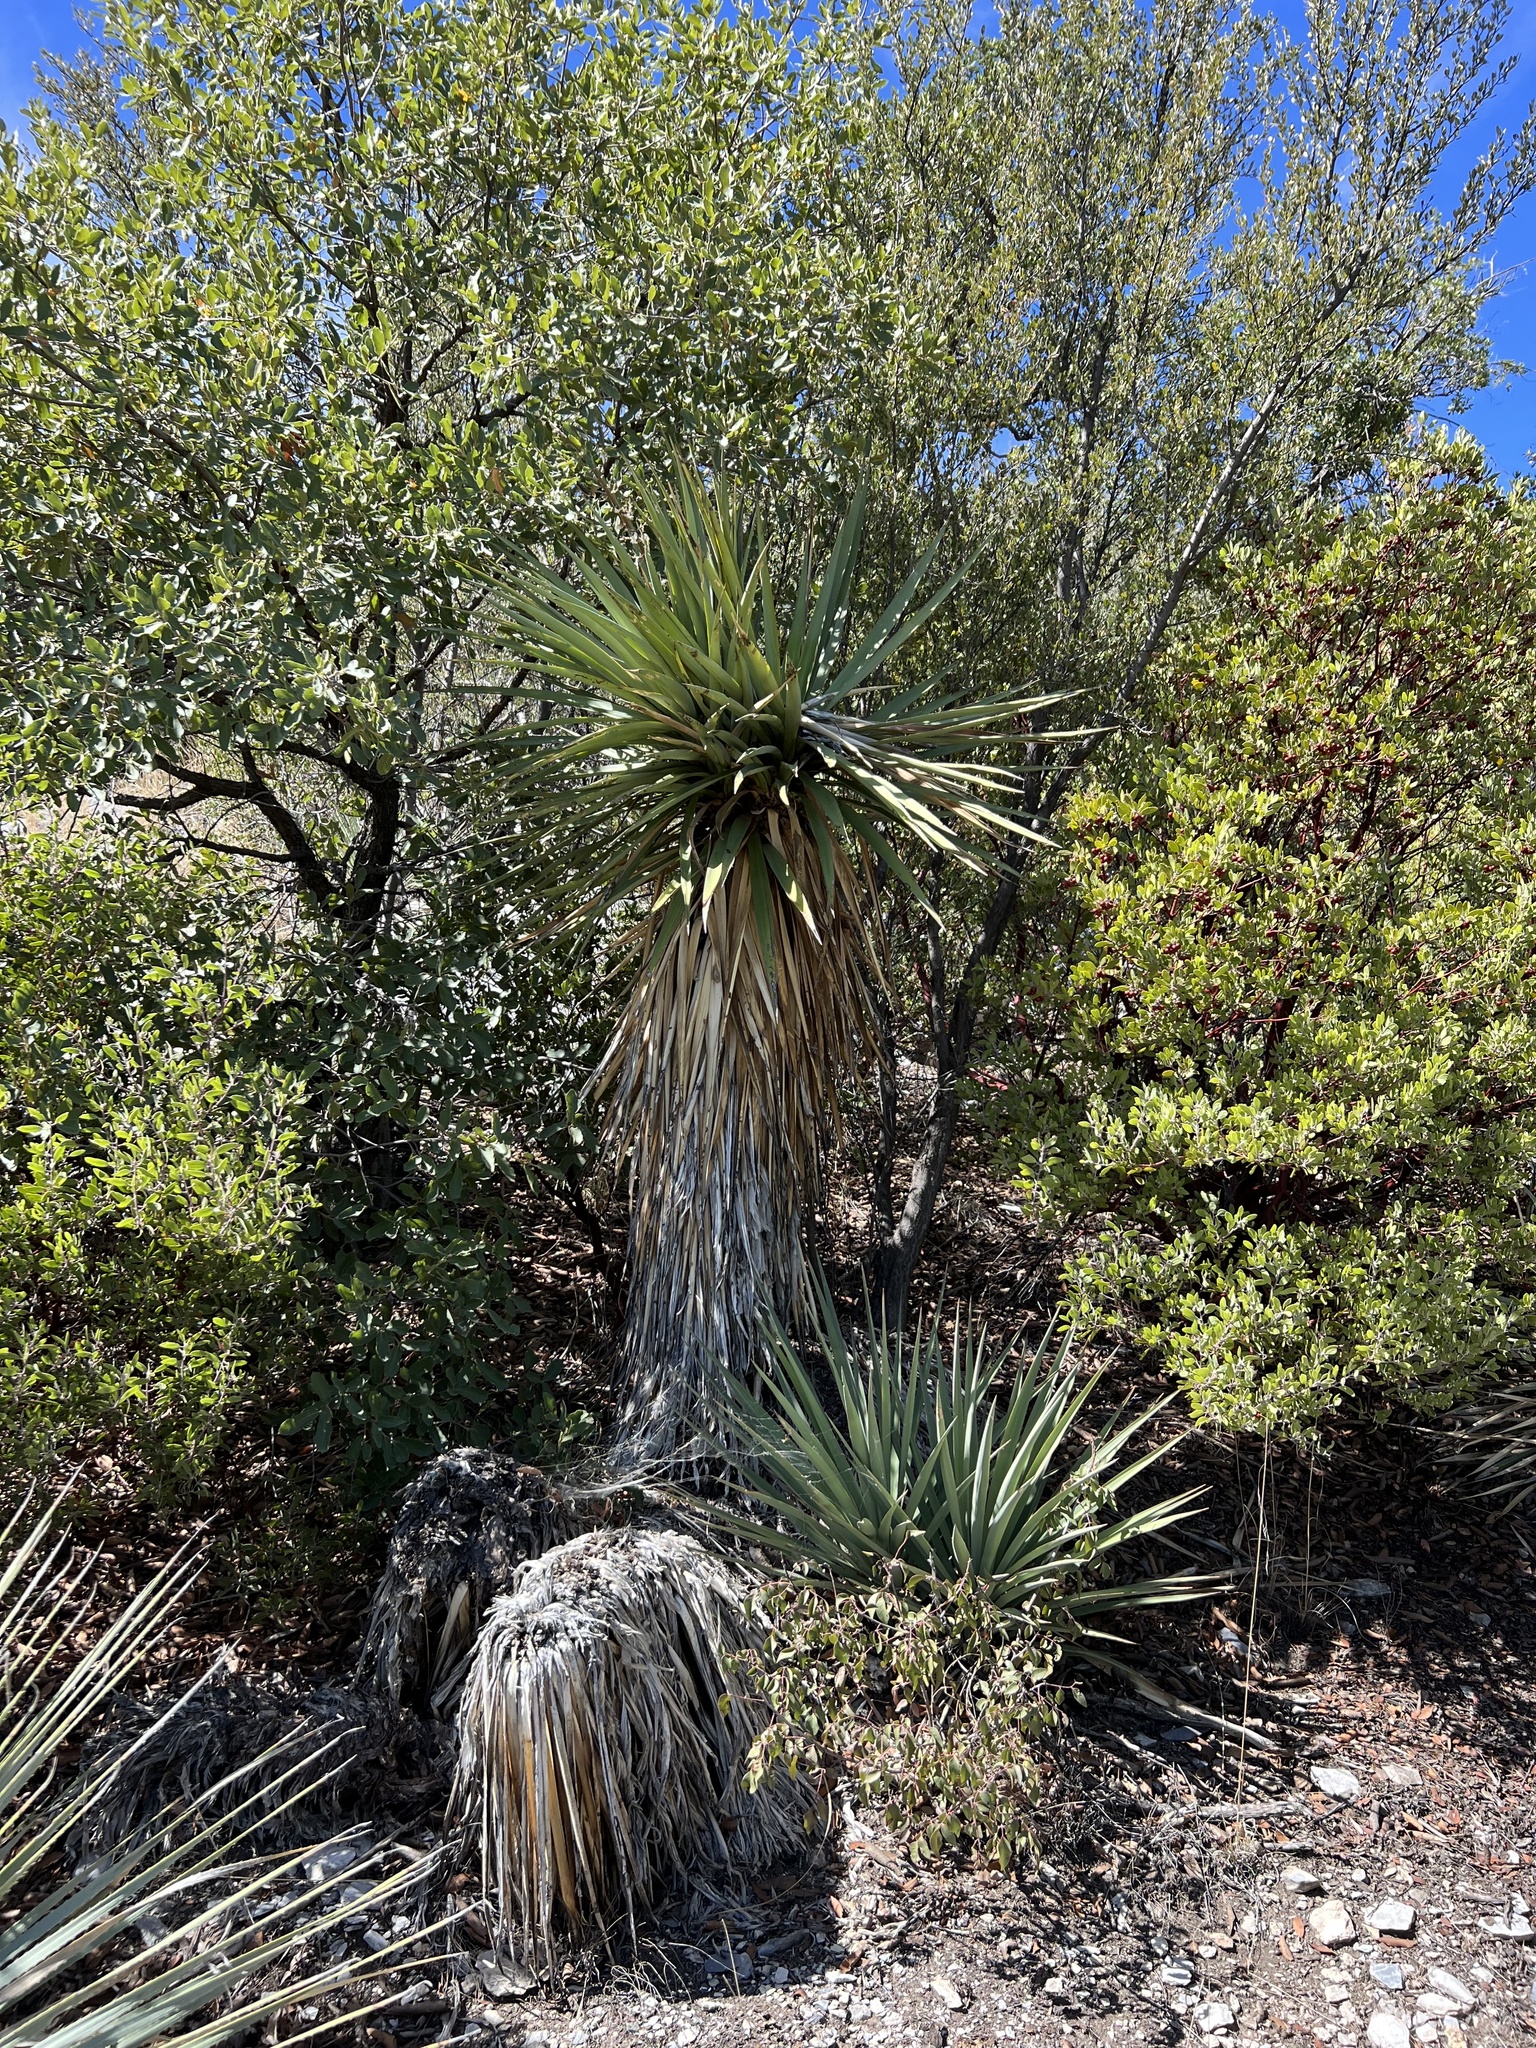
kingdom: Plantae
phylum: Tracheophyta
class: Liliopsida
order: Asparagales
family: Asparagaceae
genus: Yucca
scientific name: Yucca schottii
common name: Hoary yucca
